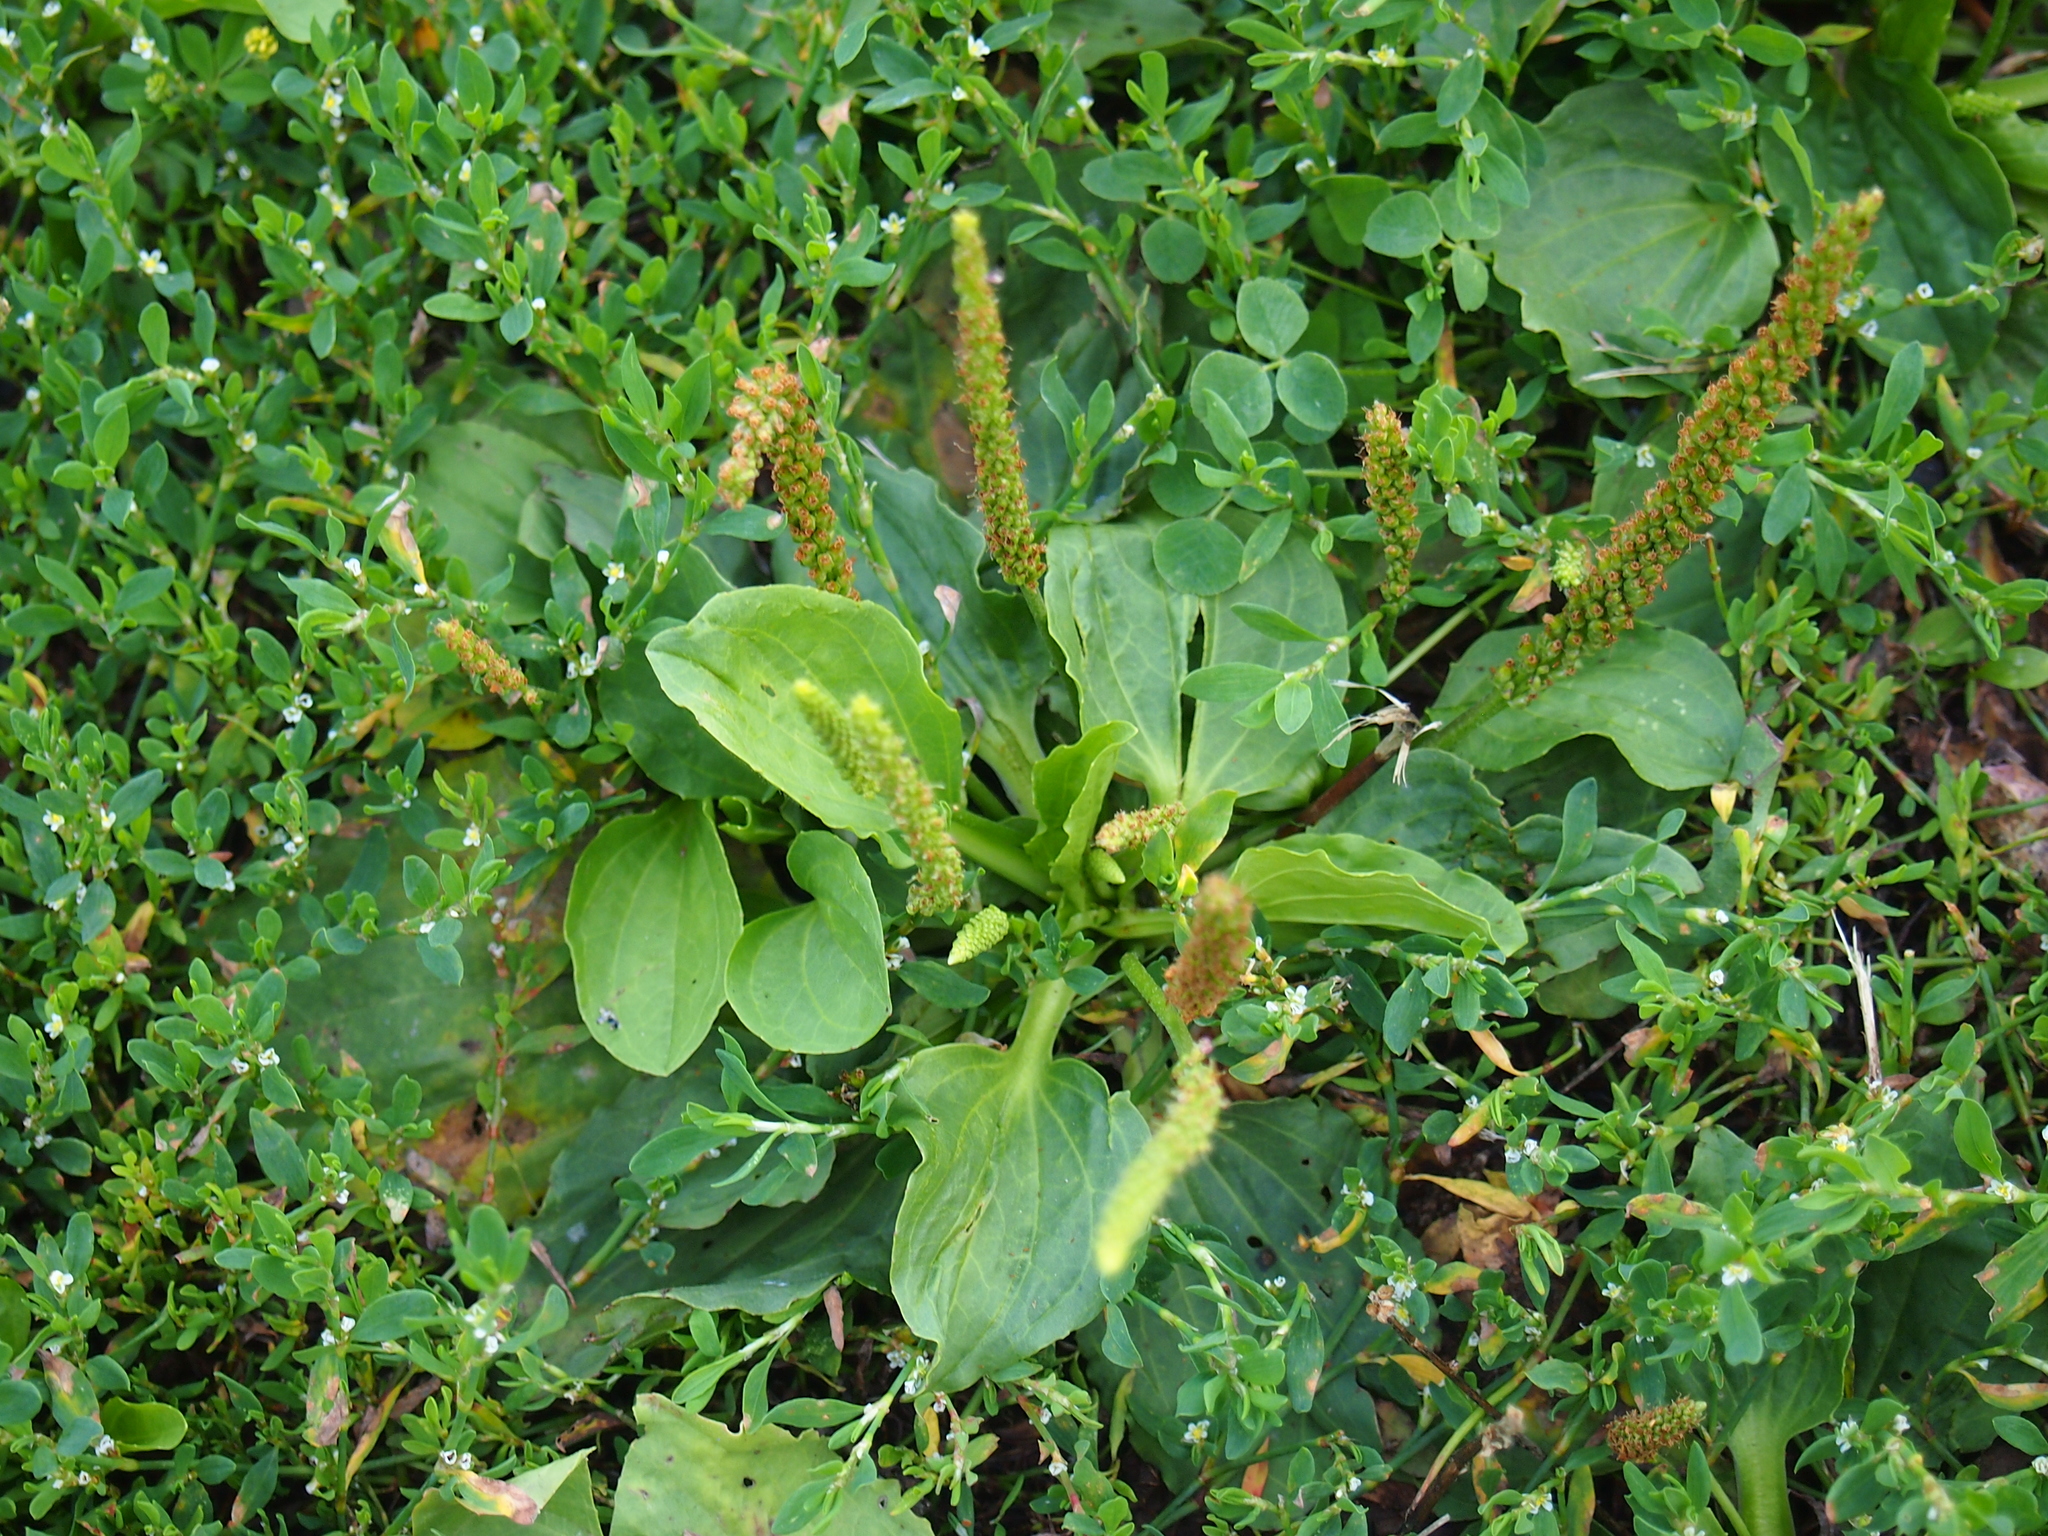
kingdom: Plantae
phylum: Tracheophyta
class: Magnoliopsida
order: Lamiales
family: Plantaginaceae
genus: Plantago
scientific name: Plantago major
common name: Common plantain
